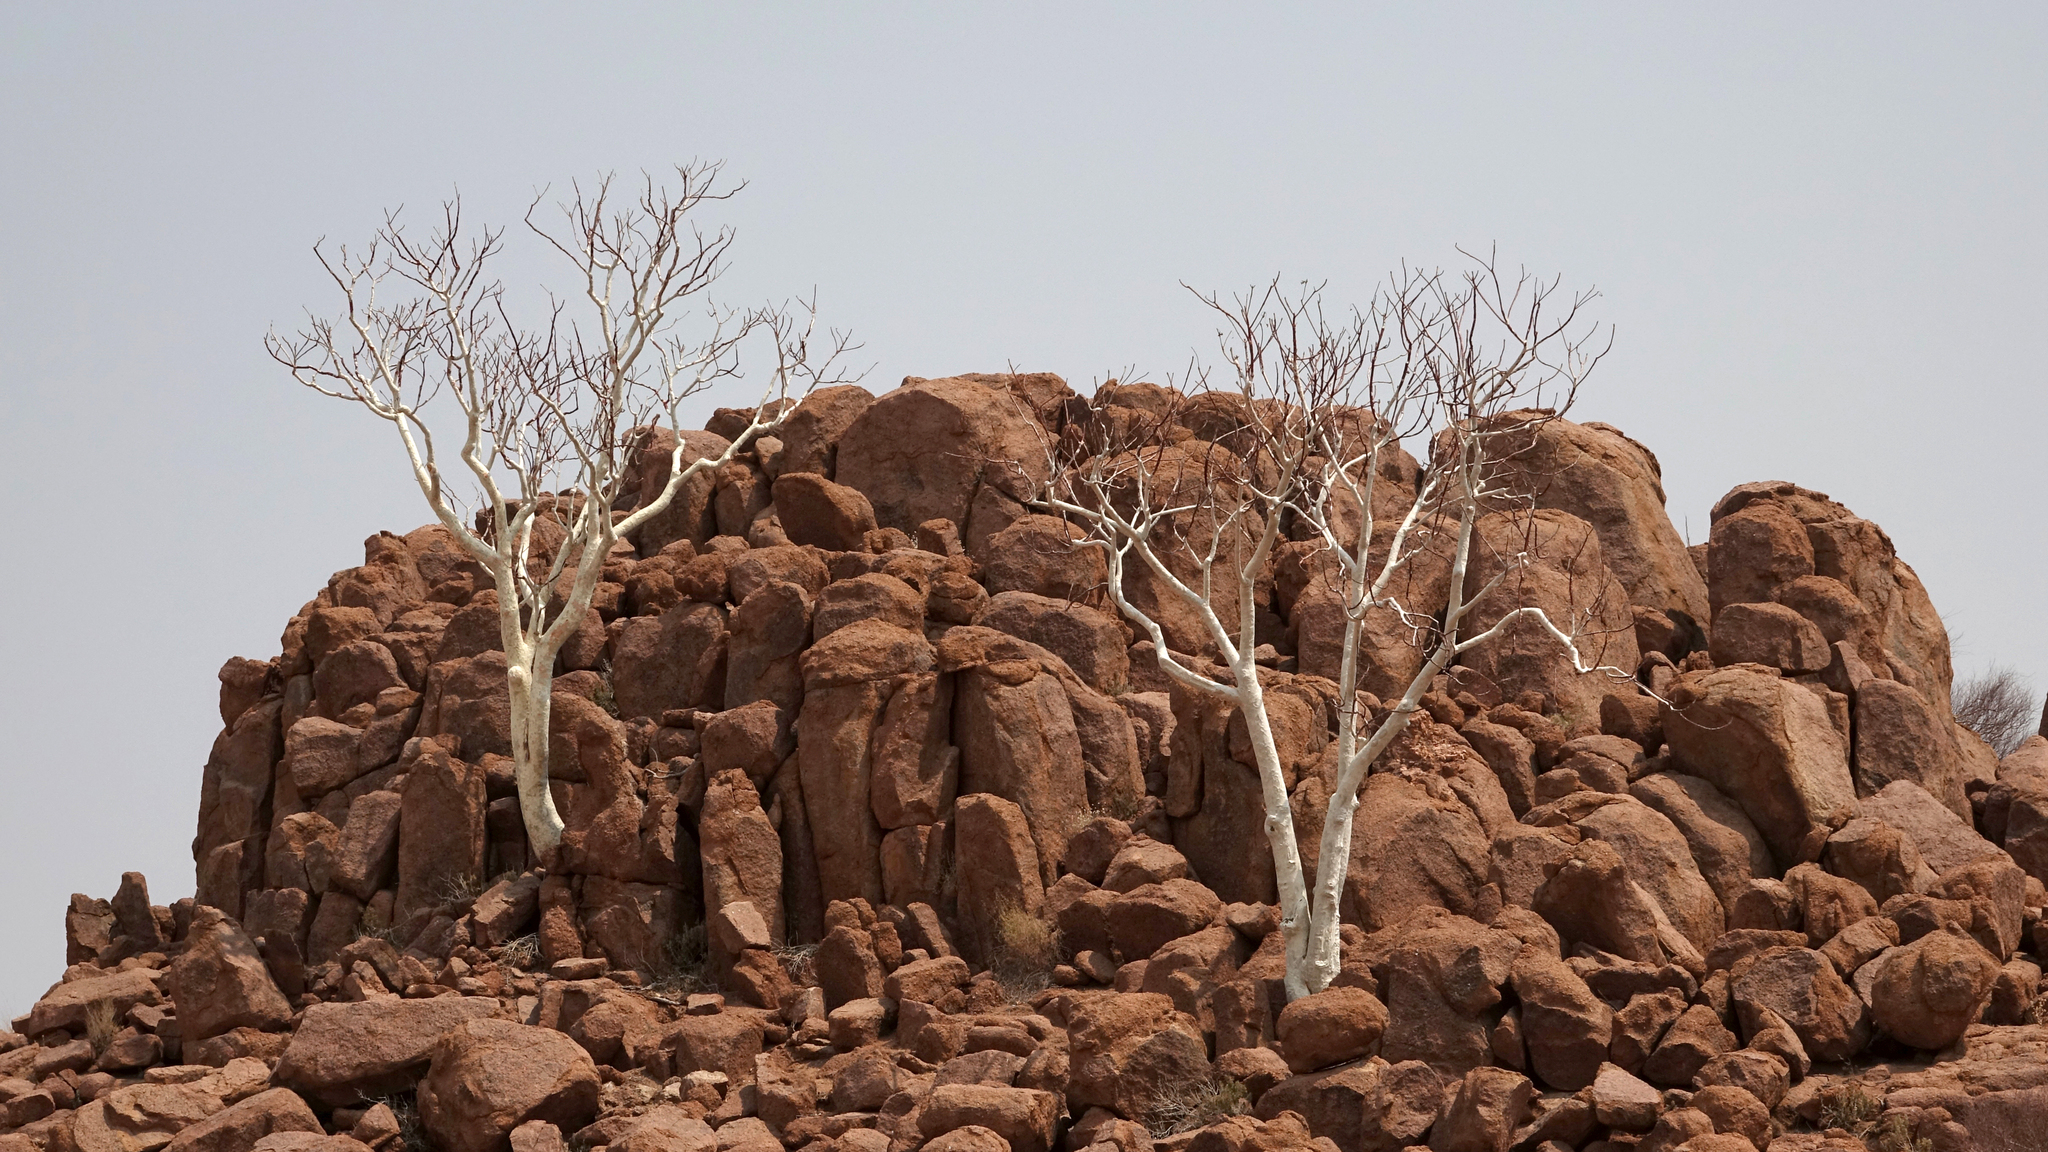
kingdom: Plantae
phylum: Tracheophyta
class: Magnoliopsida
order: Malvales
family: Malvaceae
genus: Sterculia
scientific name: Sterculia quinqueloba
